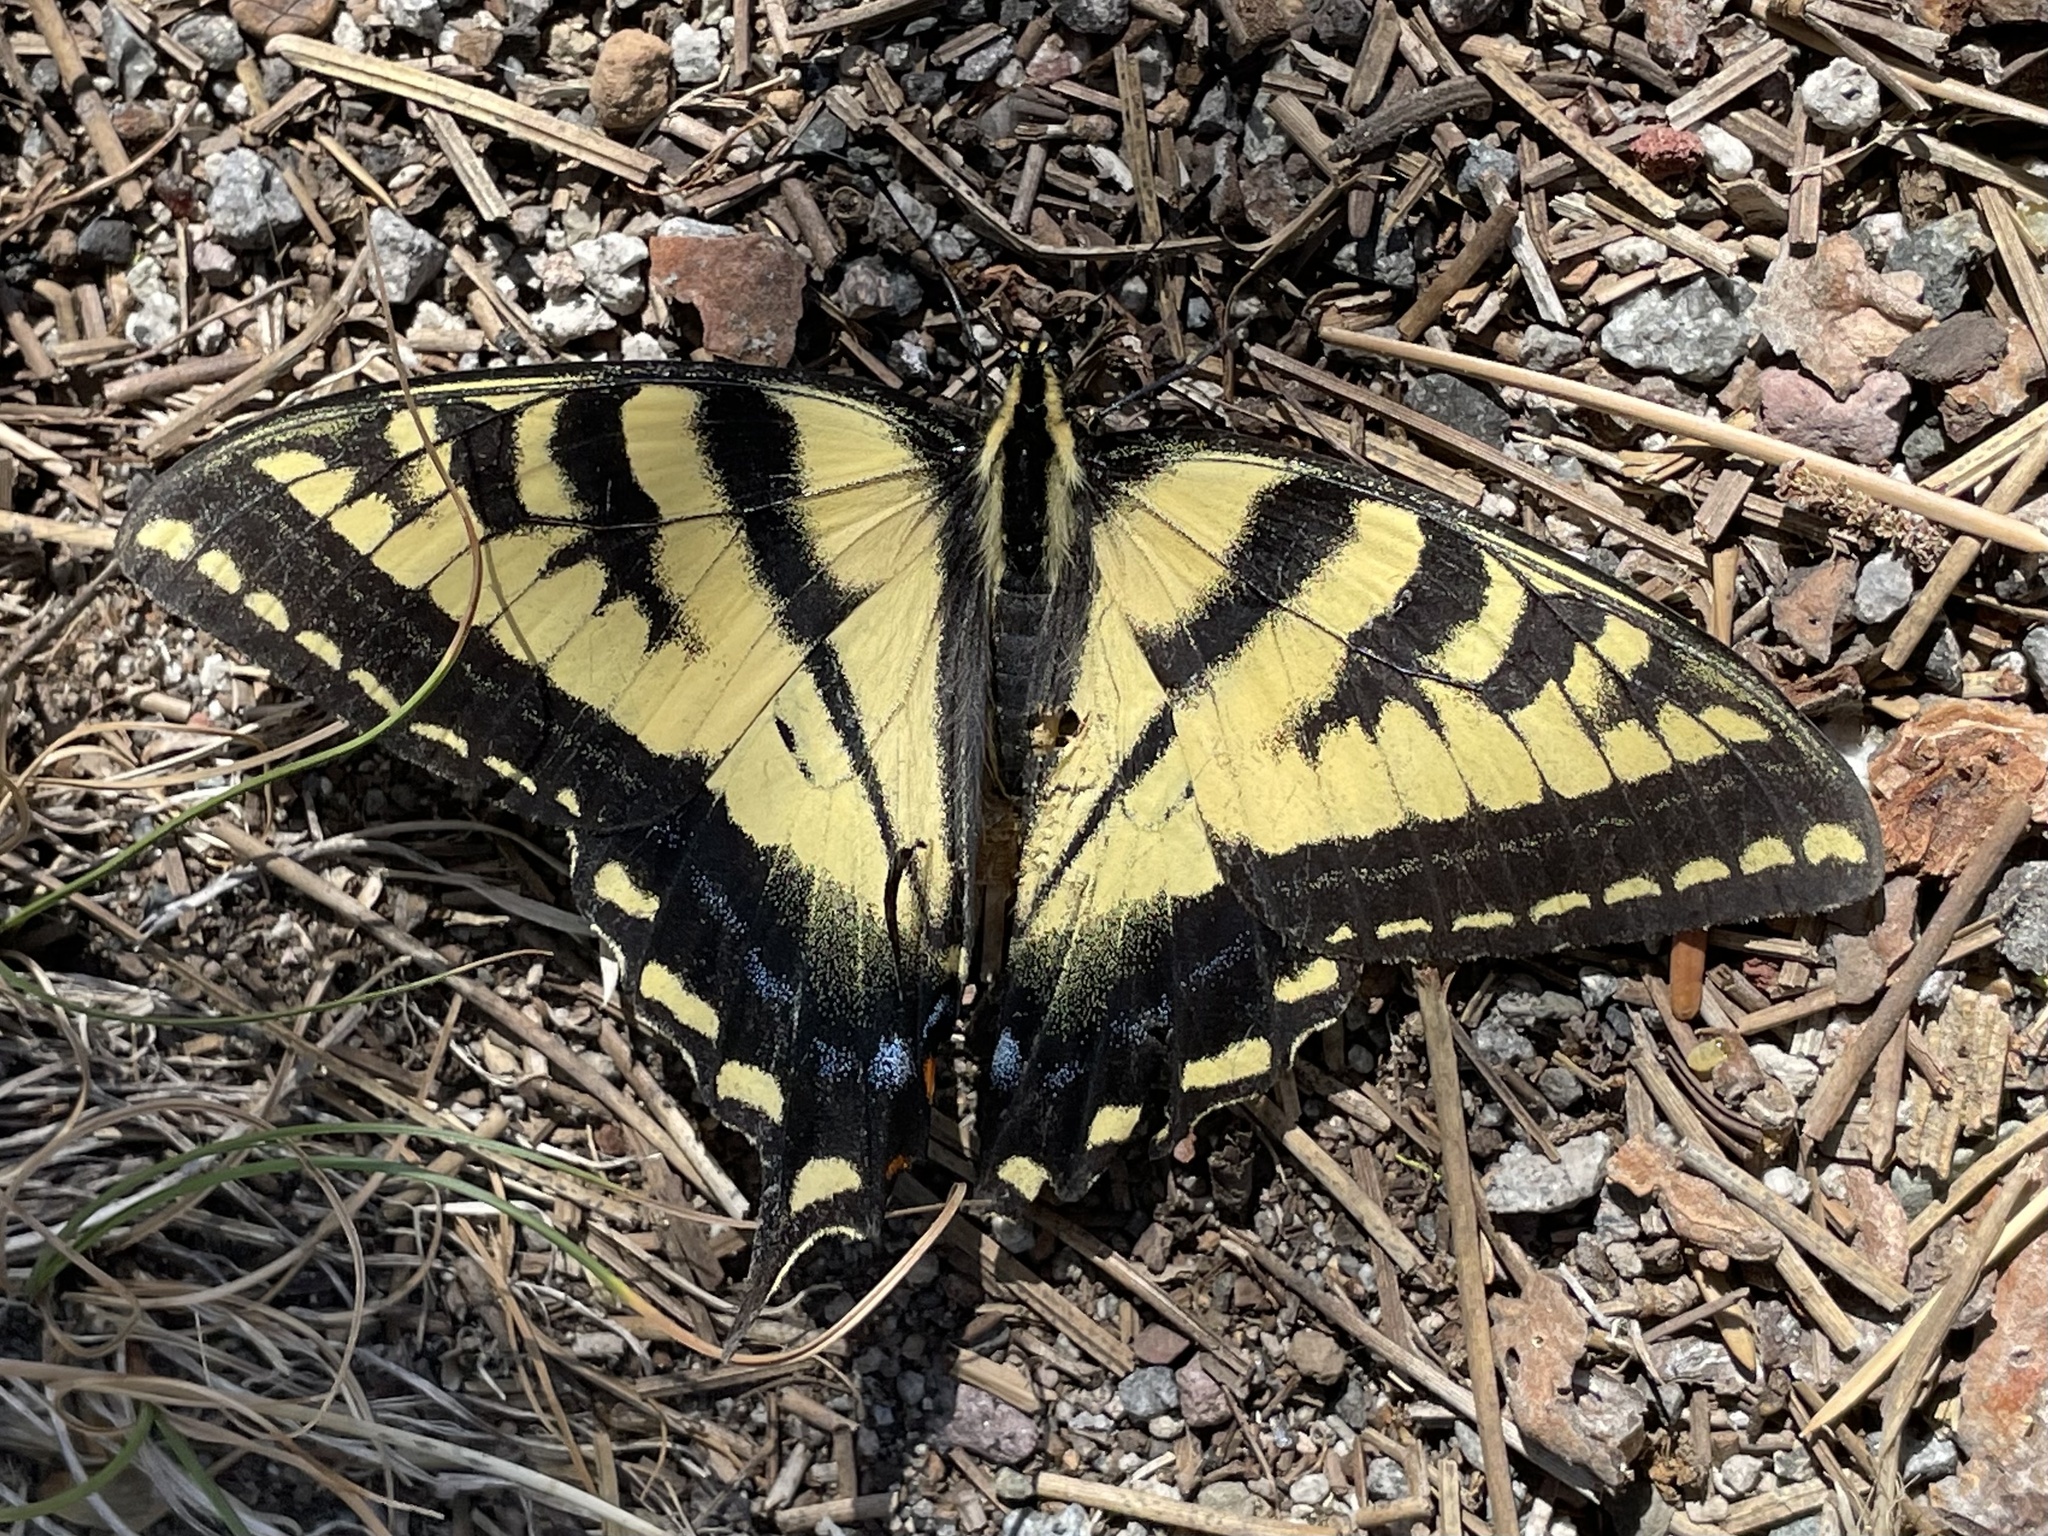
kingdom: Animalia
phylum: Arthropoda
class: Insecta
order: Lepidoptera
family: Papilionidae
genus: Papilio
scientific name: Papilio rutulus
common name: Western tiger swallowtail
